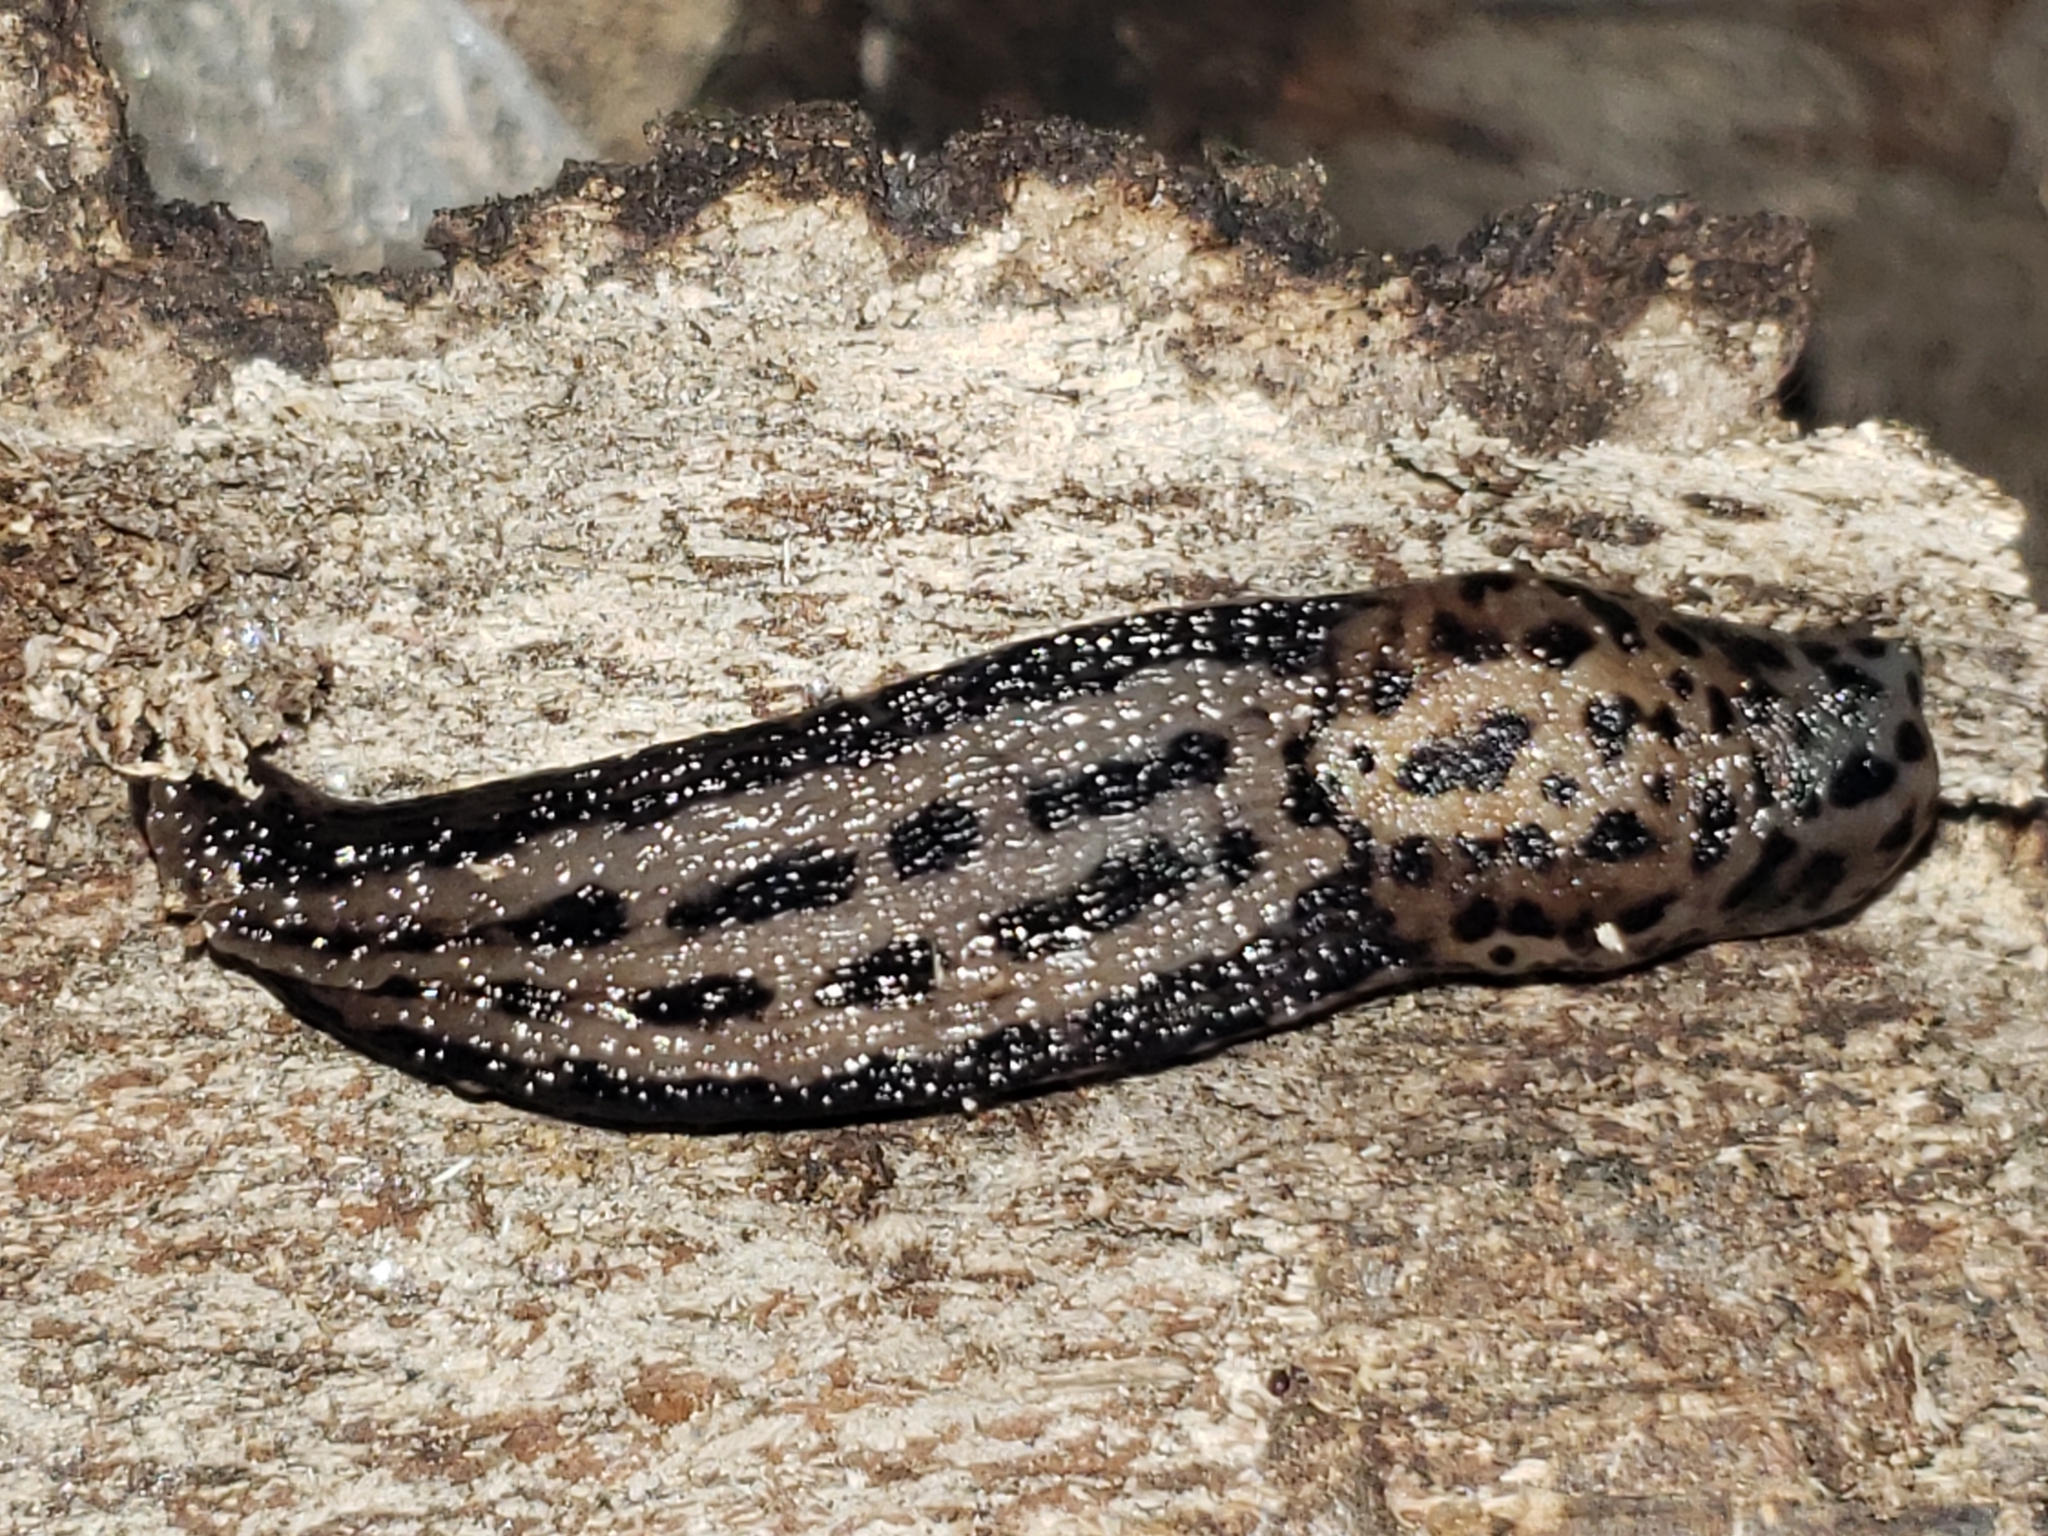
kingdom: Animalia
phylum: Mollusca
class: Gastropoda
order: Stylommatophora
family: Limacidae
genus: Limax
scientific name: Limax maximus
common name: Great grey slug
